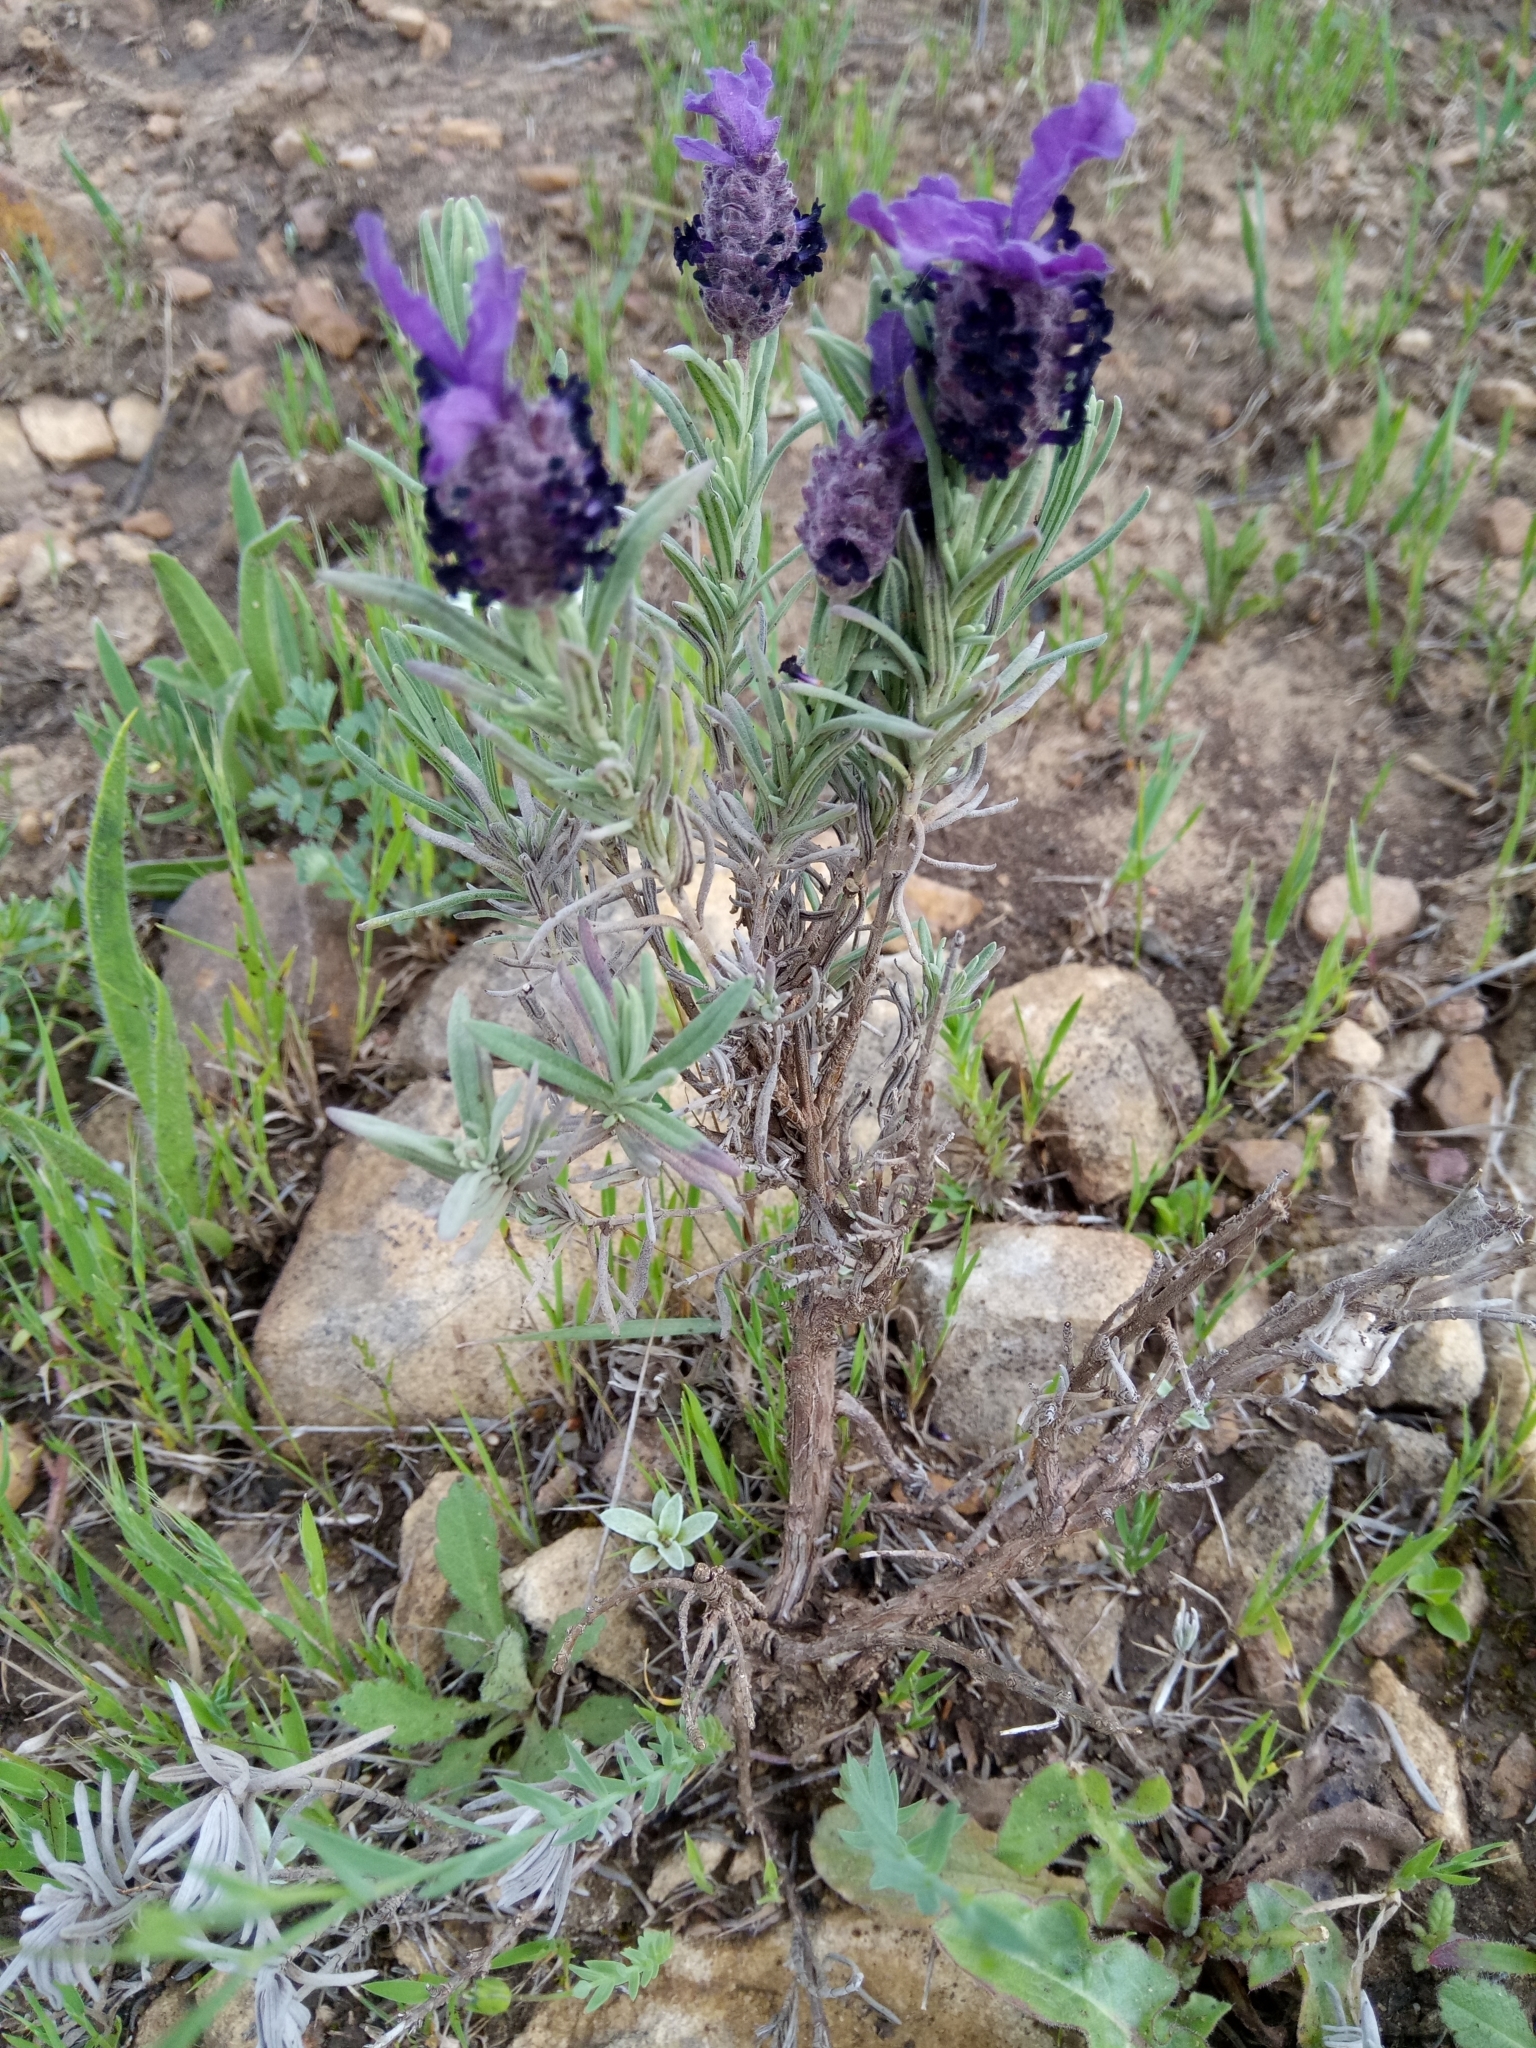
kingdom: Plantae
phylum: Tracheophyta
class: Magnoliopsida
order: Lamiales
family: Lamiaceae
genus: Lavandula
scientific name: Lavandula stoechas
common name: French lavender
